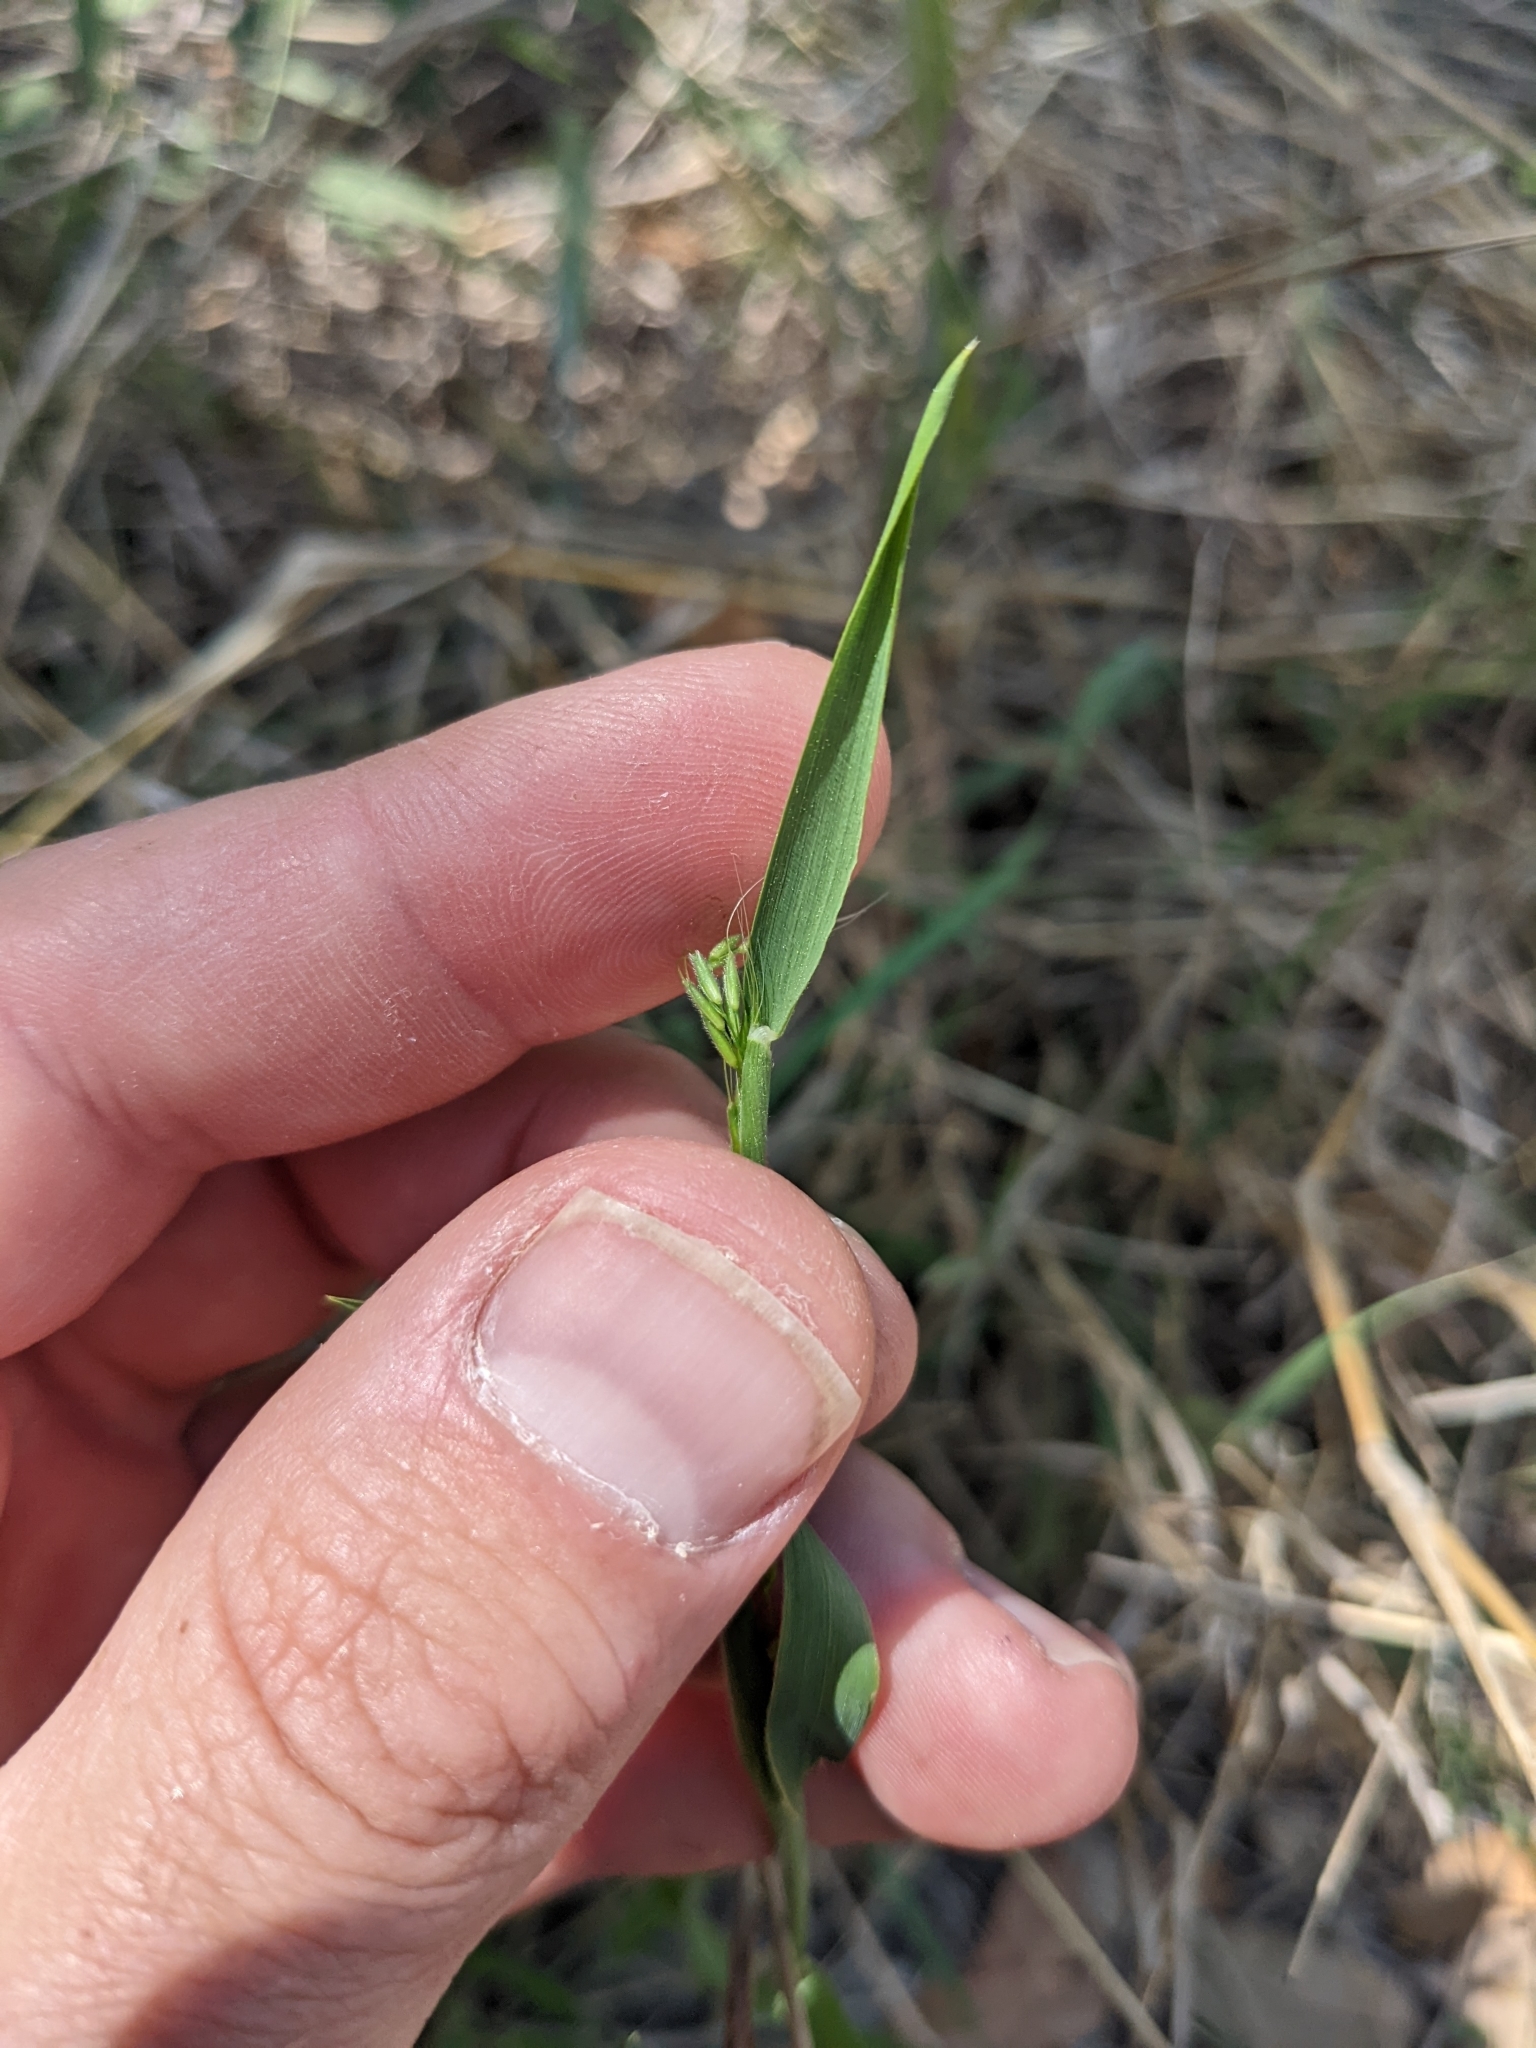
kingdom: Plantae
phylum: Tracheophyta
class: Liliopsida
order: Poales
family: Poaceae
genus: Limnodea
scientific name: Limnodea arkansana
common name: Ozark-grass
